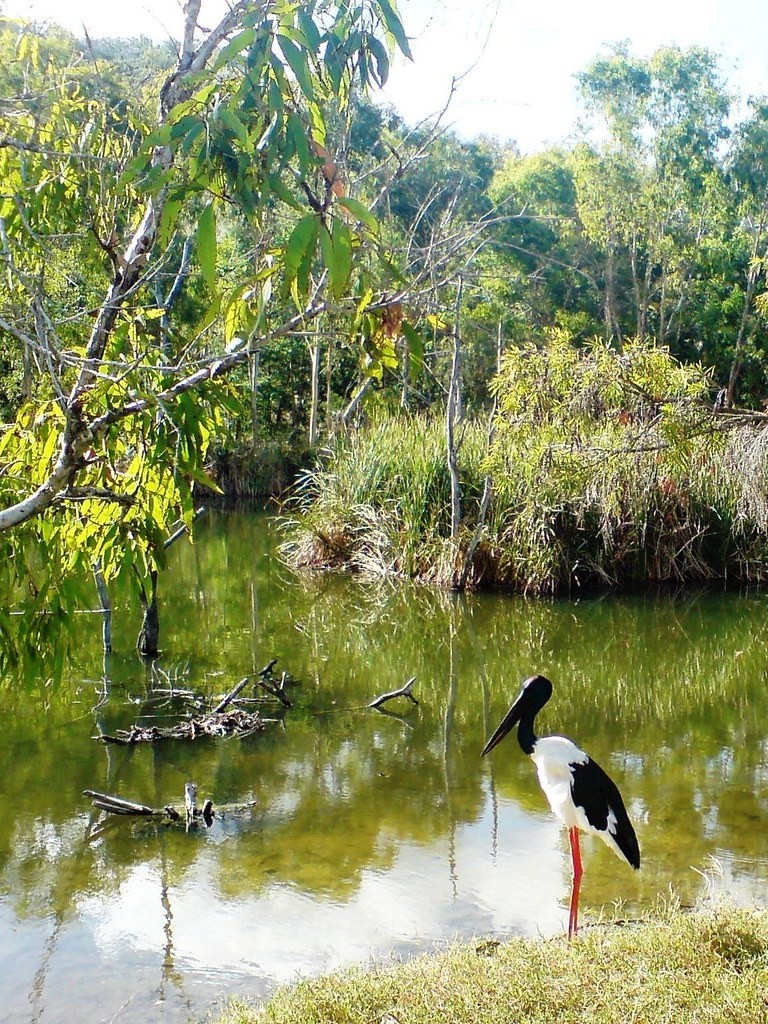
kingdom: Animalia
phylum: Chordata
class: Aves
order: Ciconiiformes
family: Ciconiidae
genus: Ephippiorhynchus
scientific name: Ephippiorhynchus asiaticus
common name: Black-necked stork
